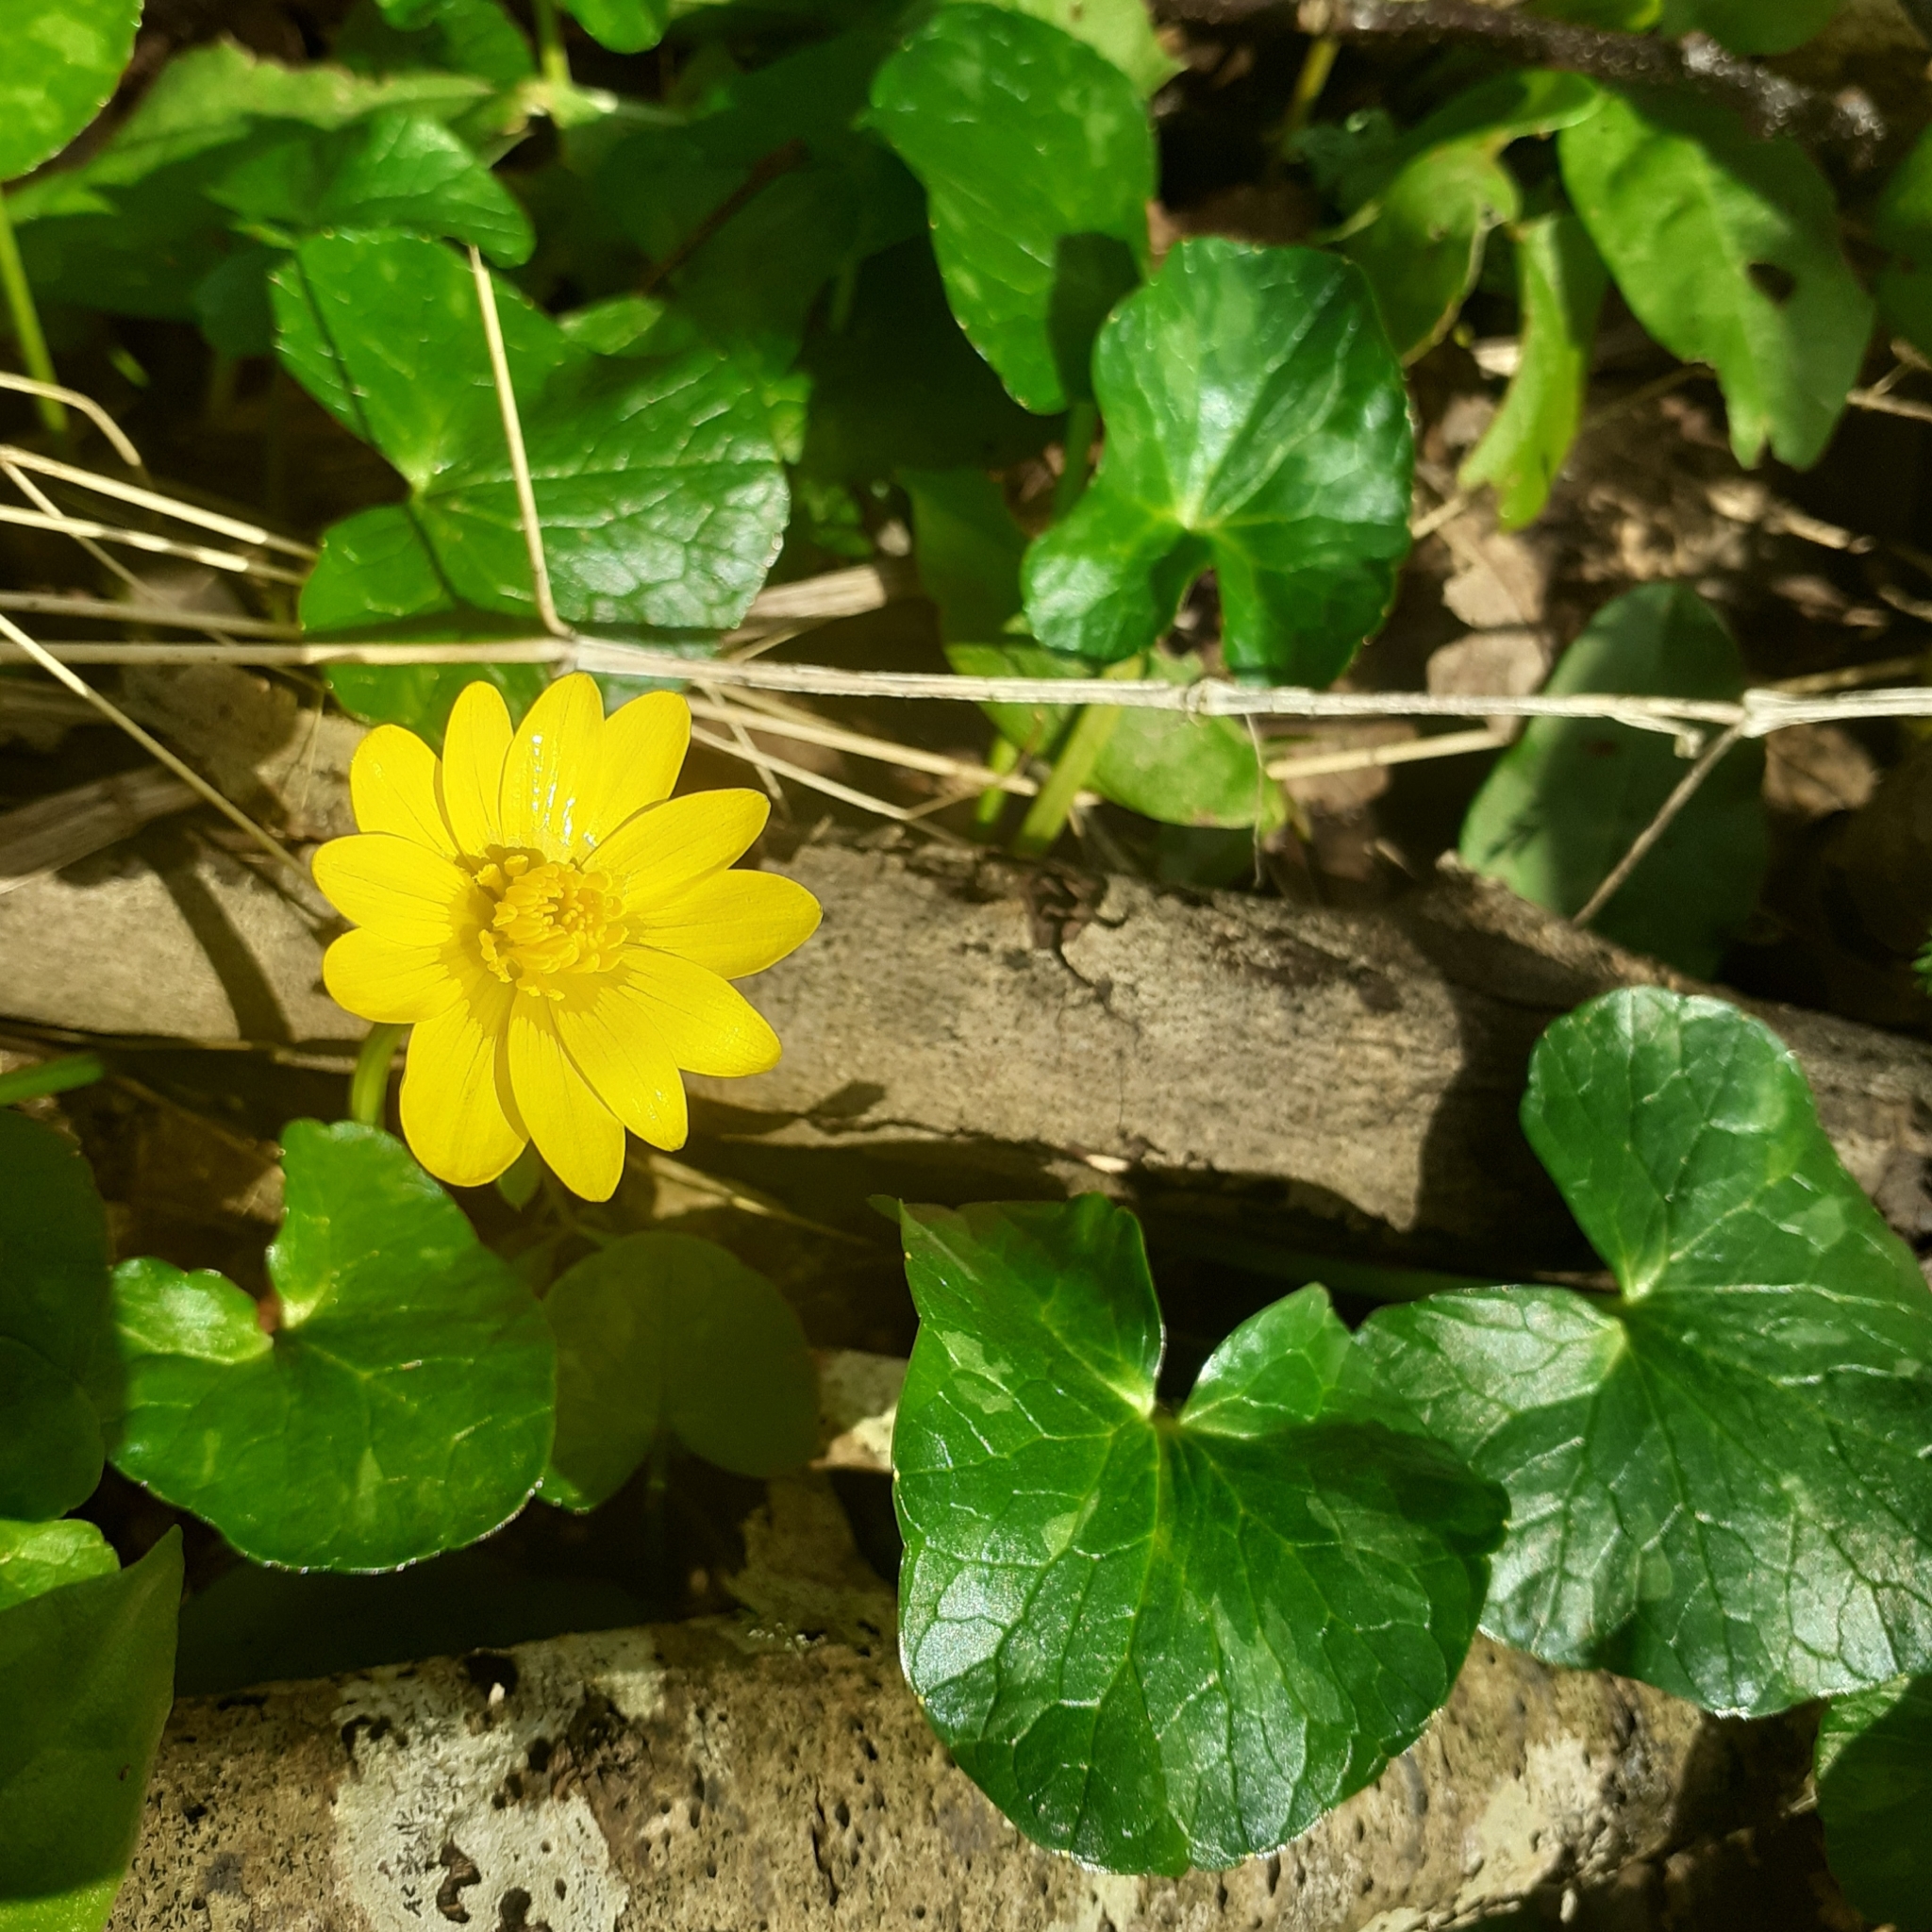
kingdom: Plantae
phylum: Tracheophyta
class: Magnoliopsida
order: Ranunculales
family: Ranunculaceae
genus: Ficaria
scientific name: Ficaria verna
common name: Lesser celandine
